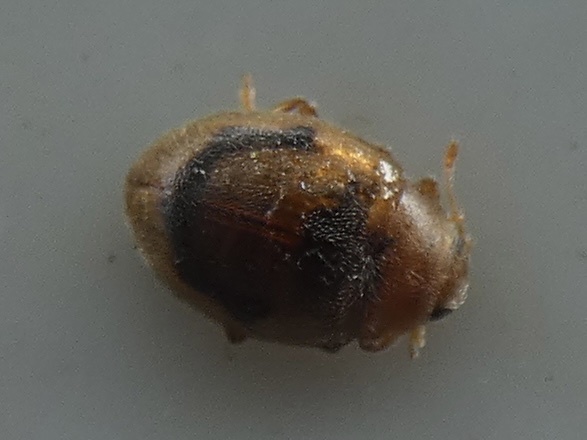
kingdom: Animalia
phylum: Arthropoda
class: Insecta
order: Coleoptera
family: Coccinellidae
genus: Rhyzobius
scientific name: Rhyzobius litura
